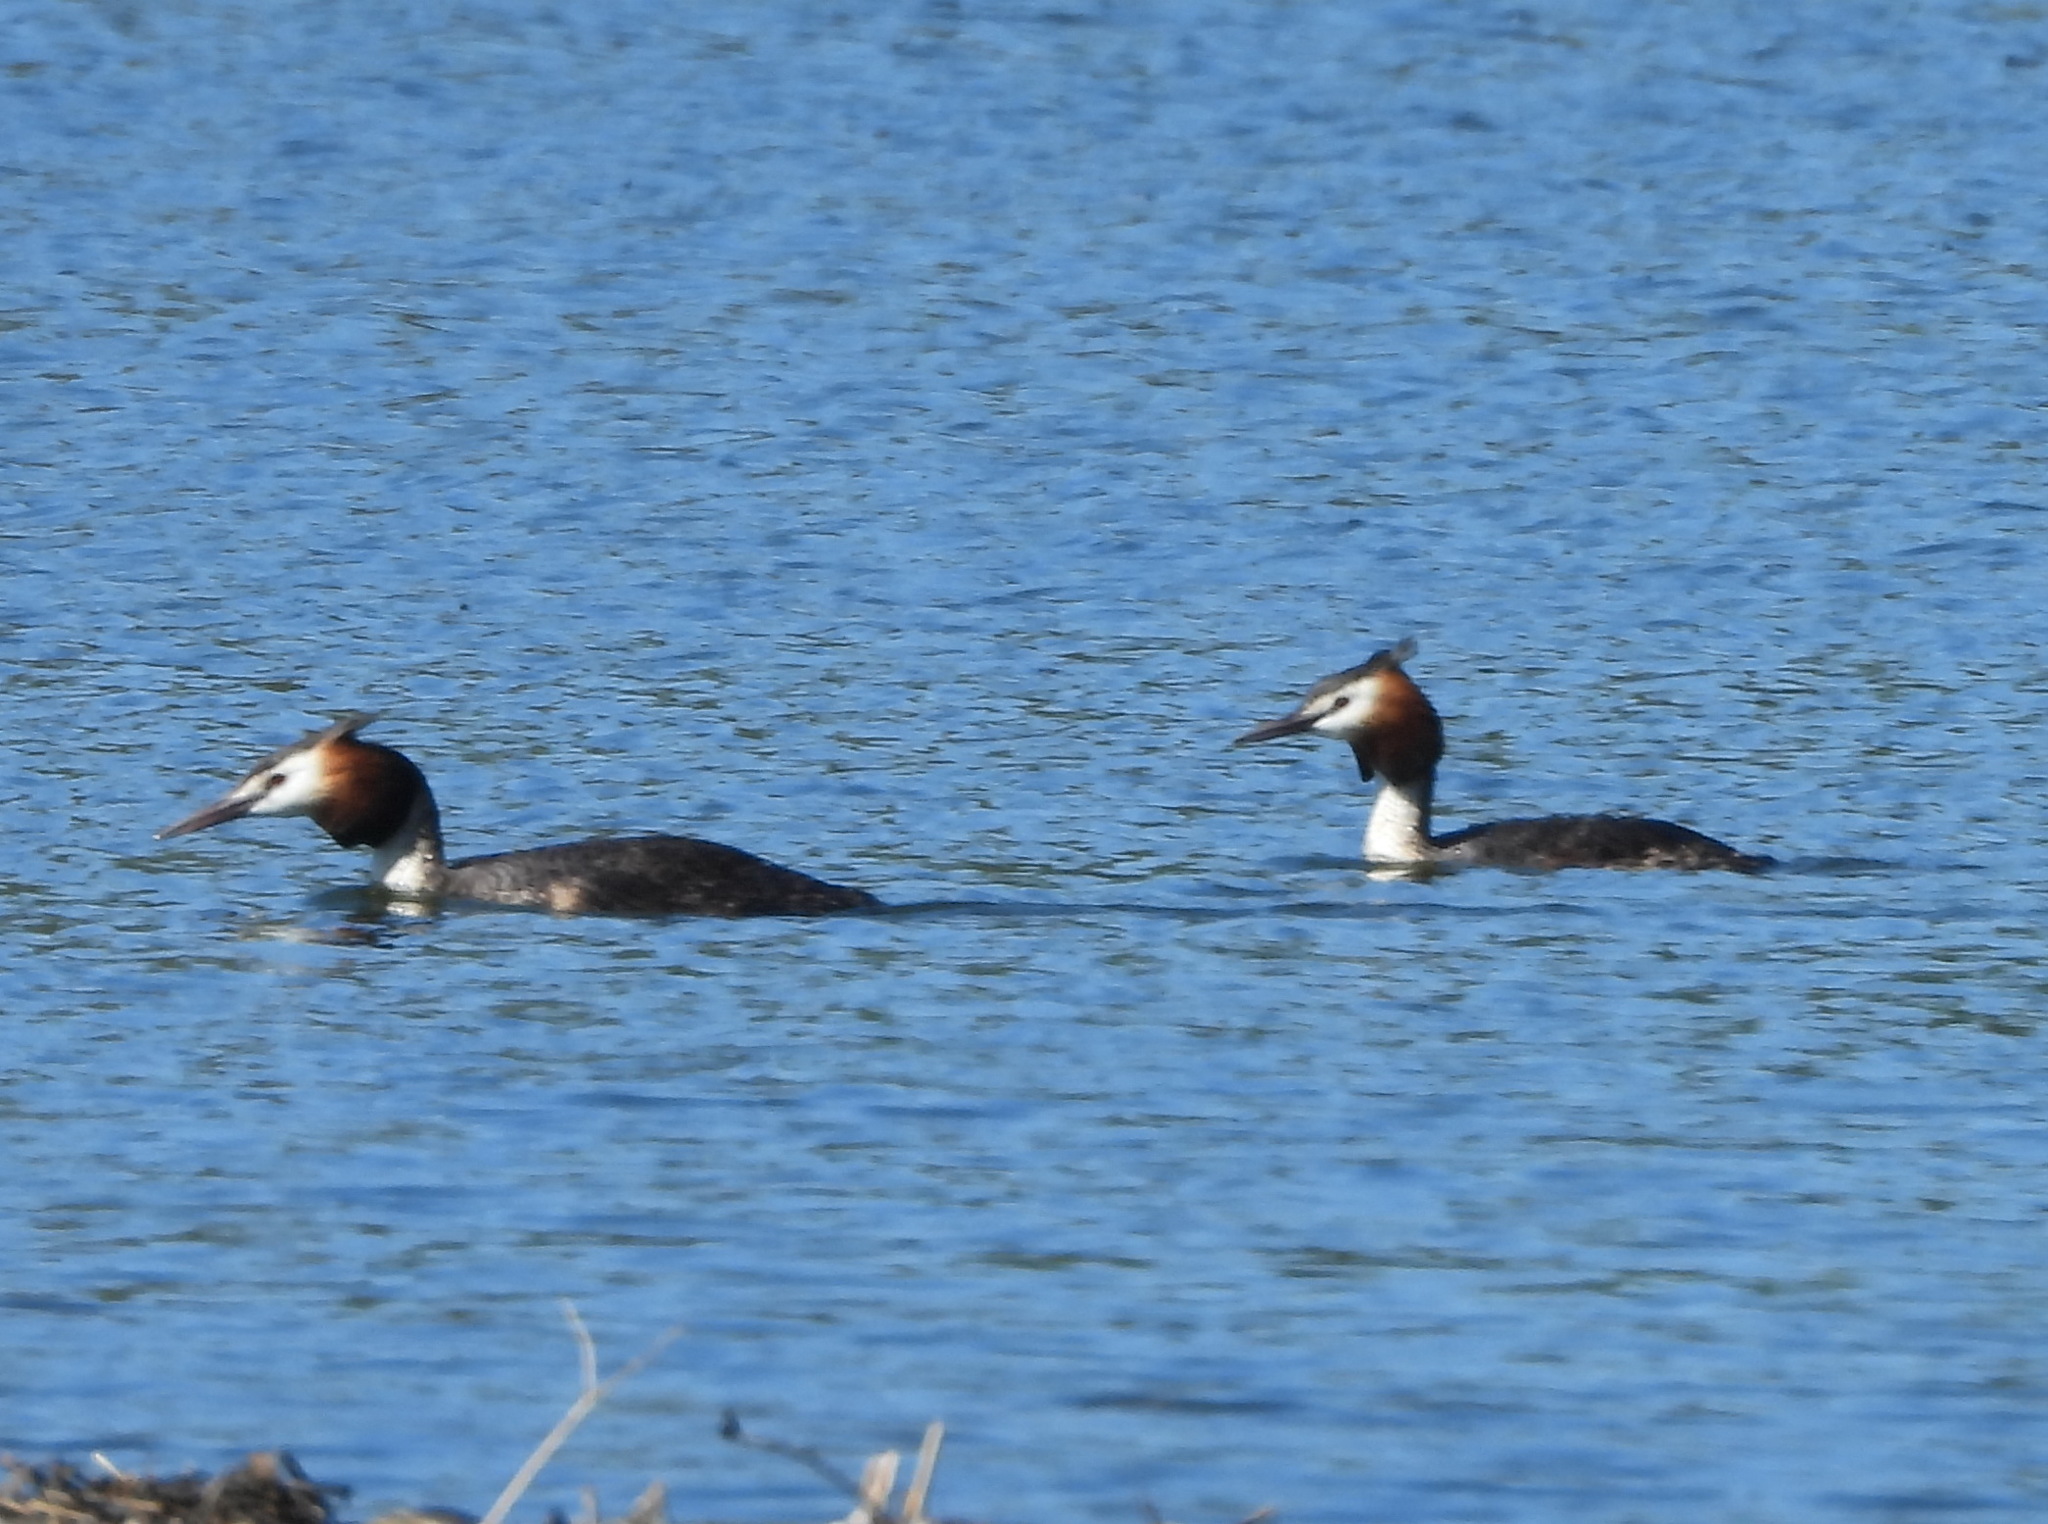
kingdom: Animalia
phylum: Chordata
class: Aves
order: Podicipediformes
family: Podicipedidae
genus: Podiceps
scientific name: Podiceps cristatus
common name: Great crested grebe
